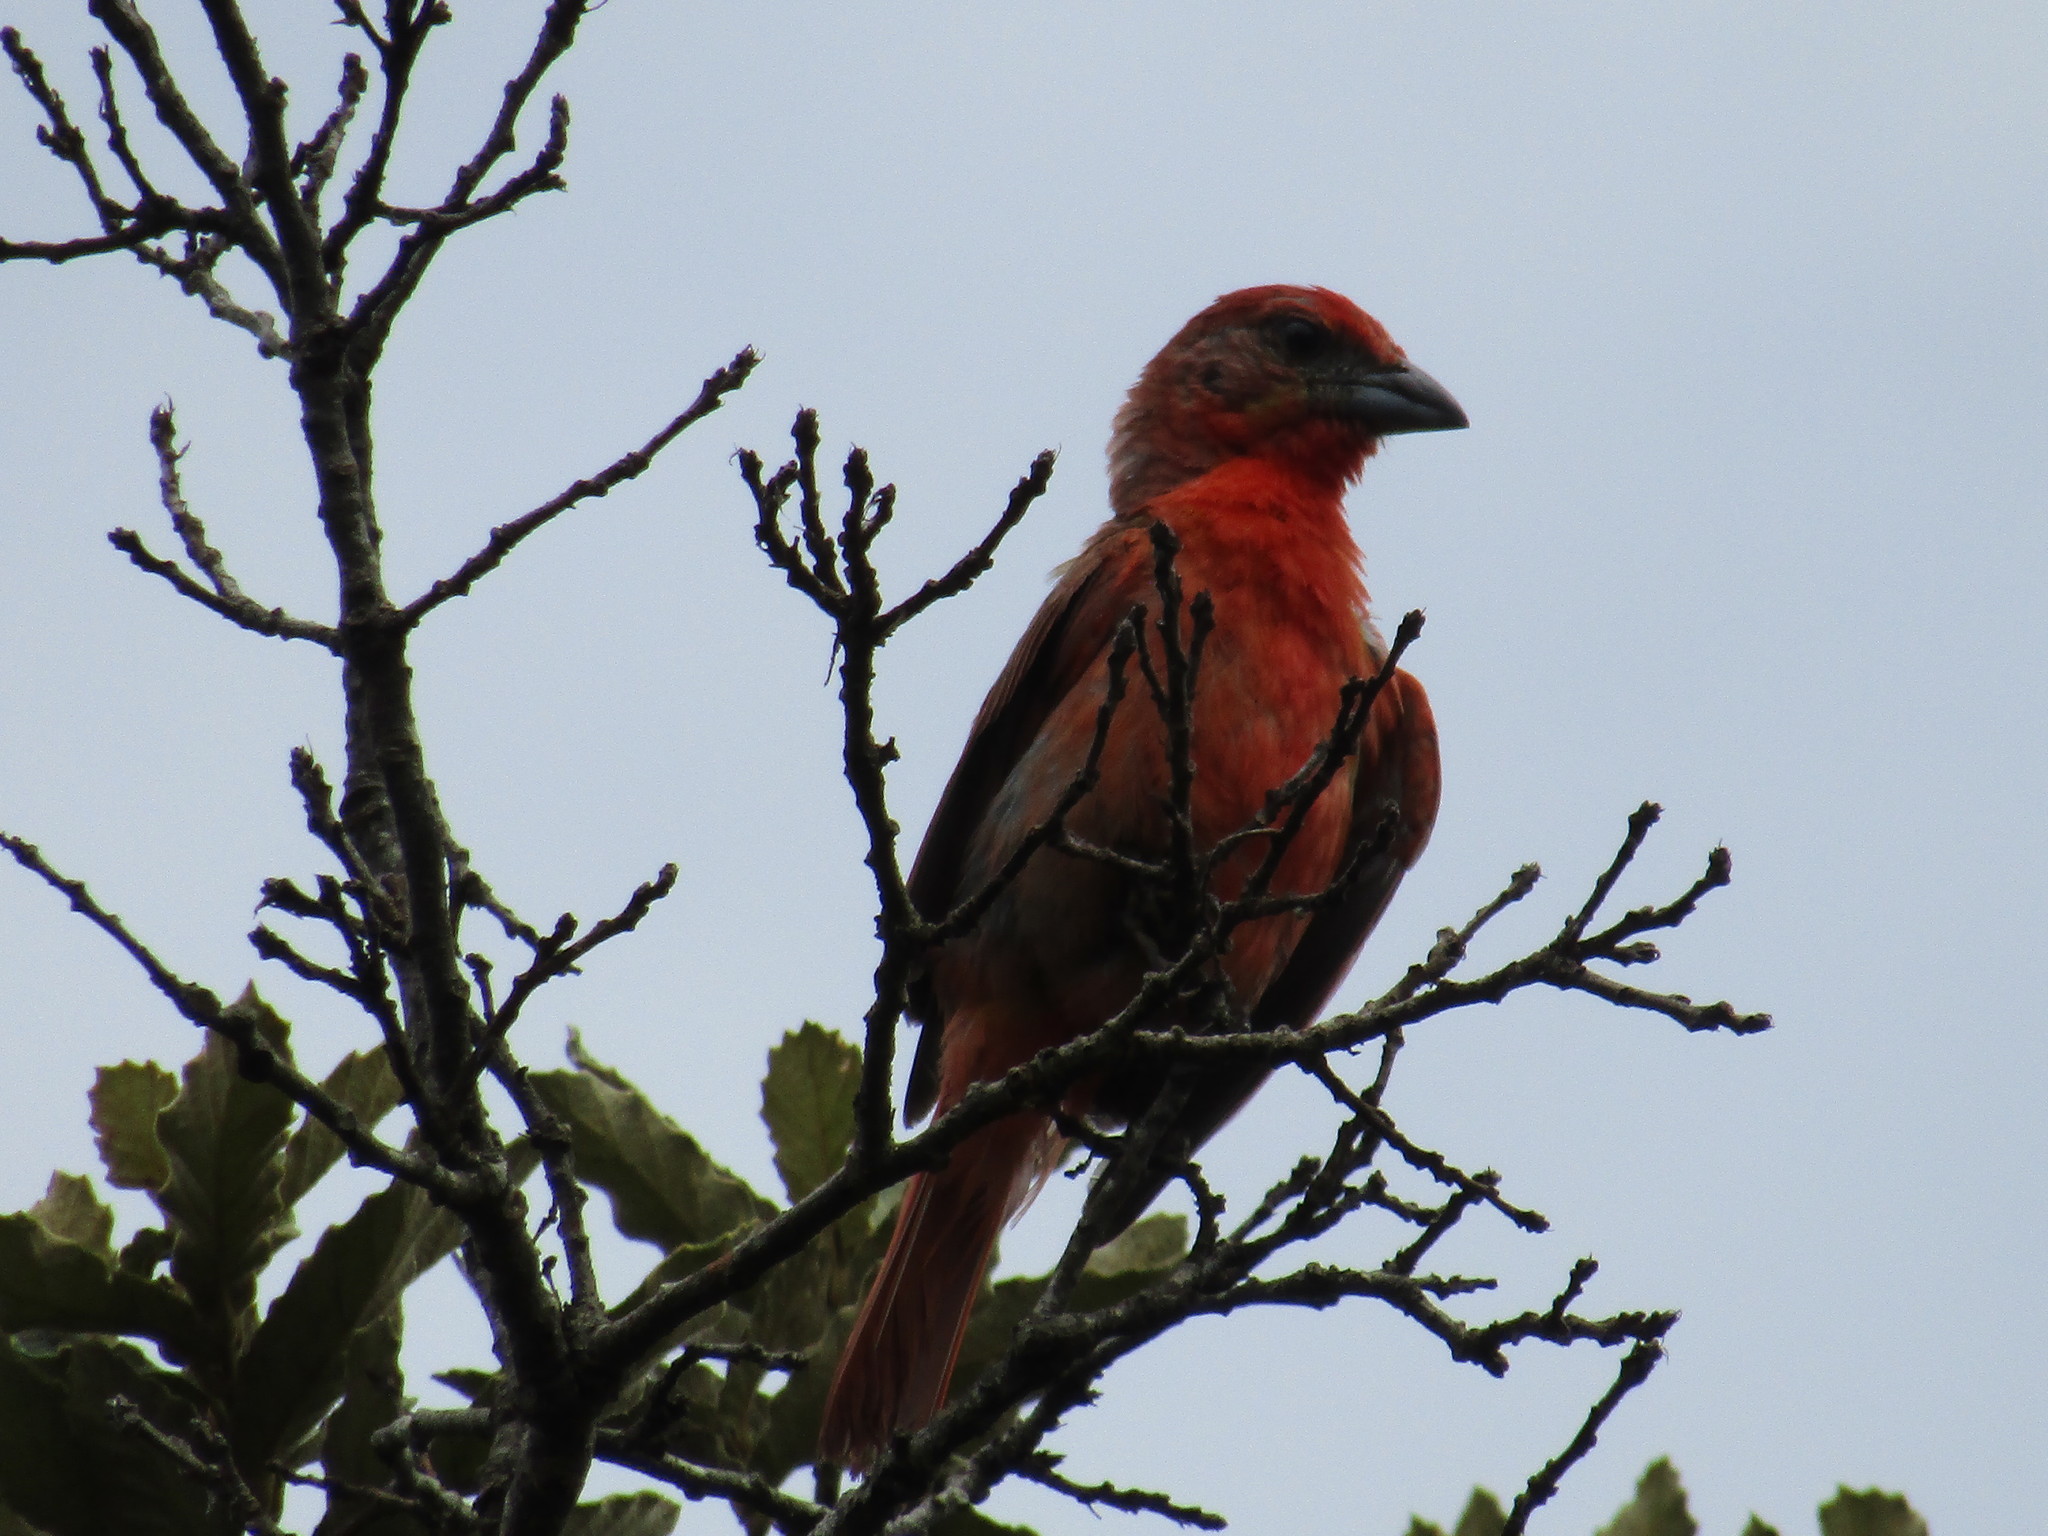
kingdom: Animalia
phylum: Chordata
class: Aves
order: Passeriformes
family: Cardinalidae
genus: Habia
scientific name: Habia fuscicauda
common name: Red-throated ant-tanager
